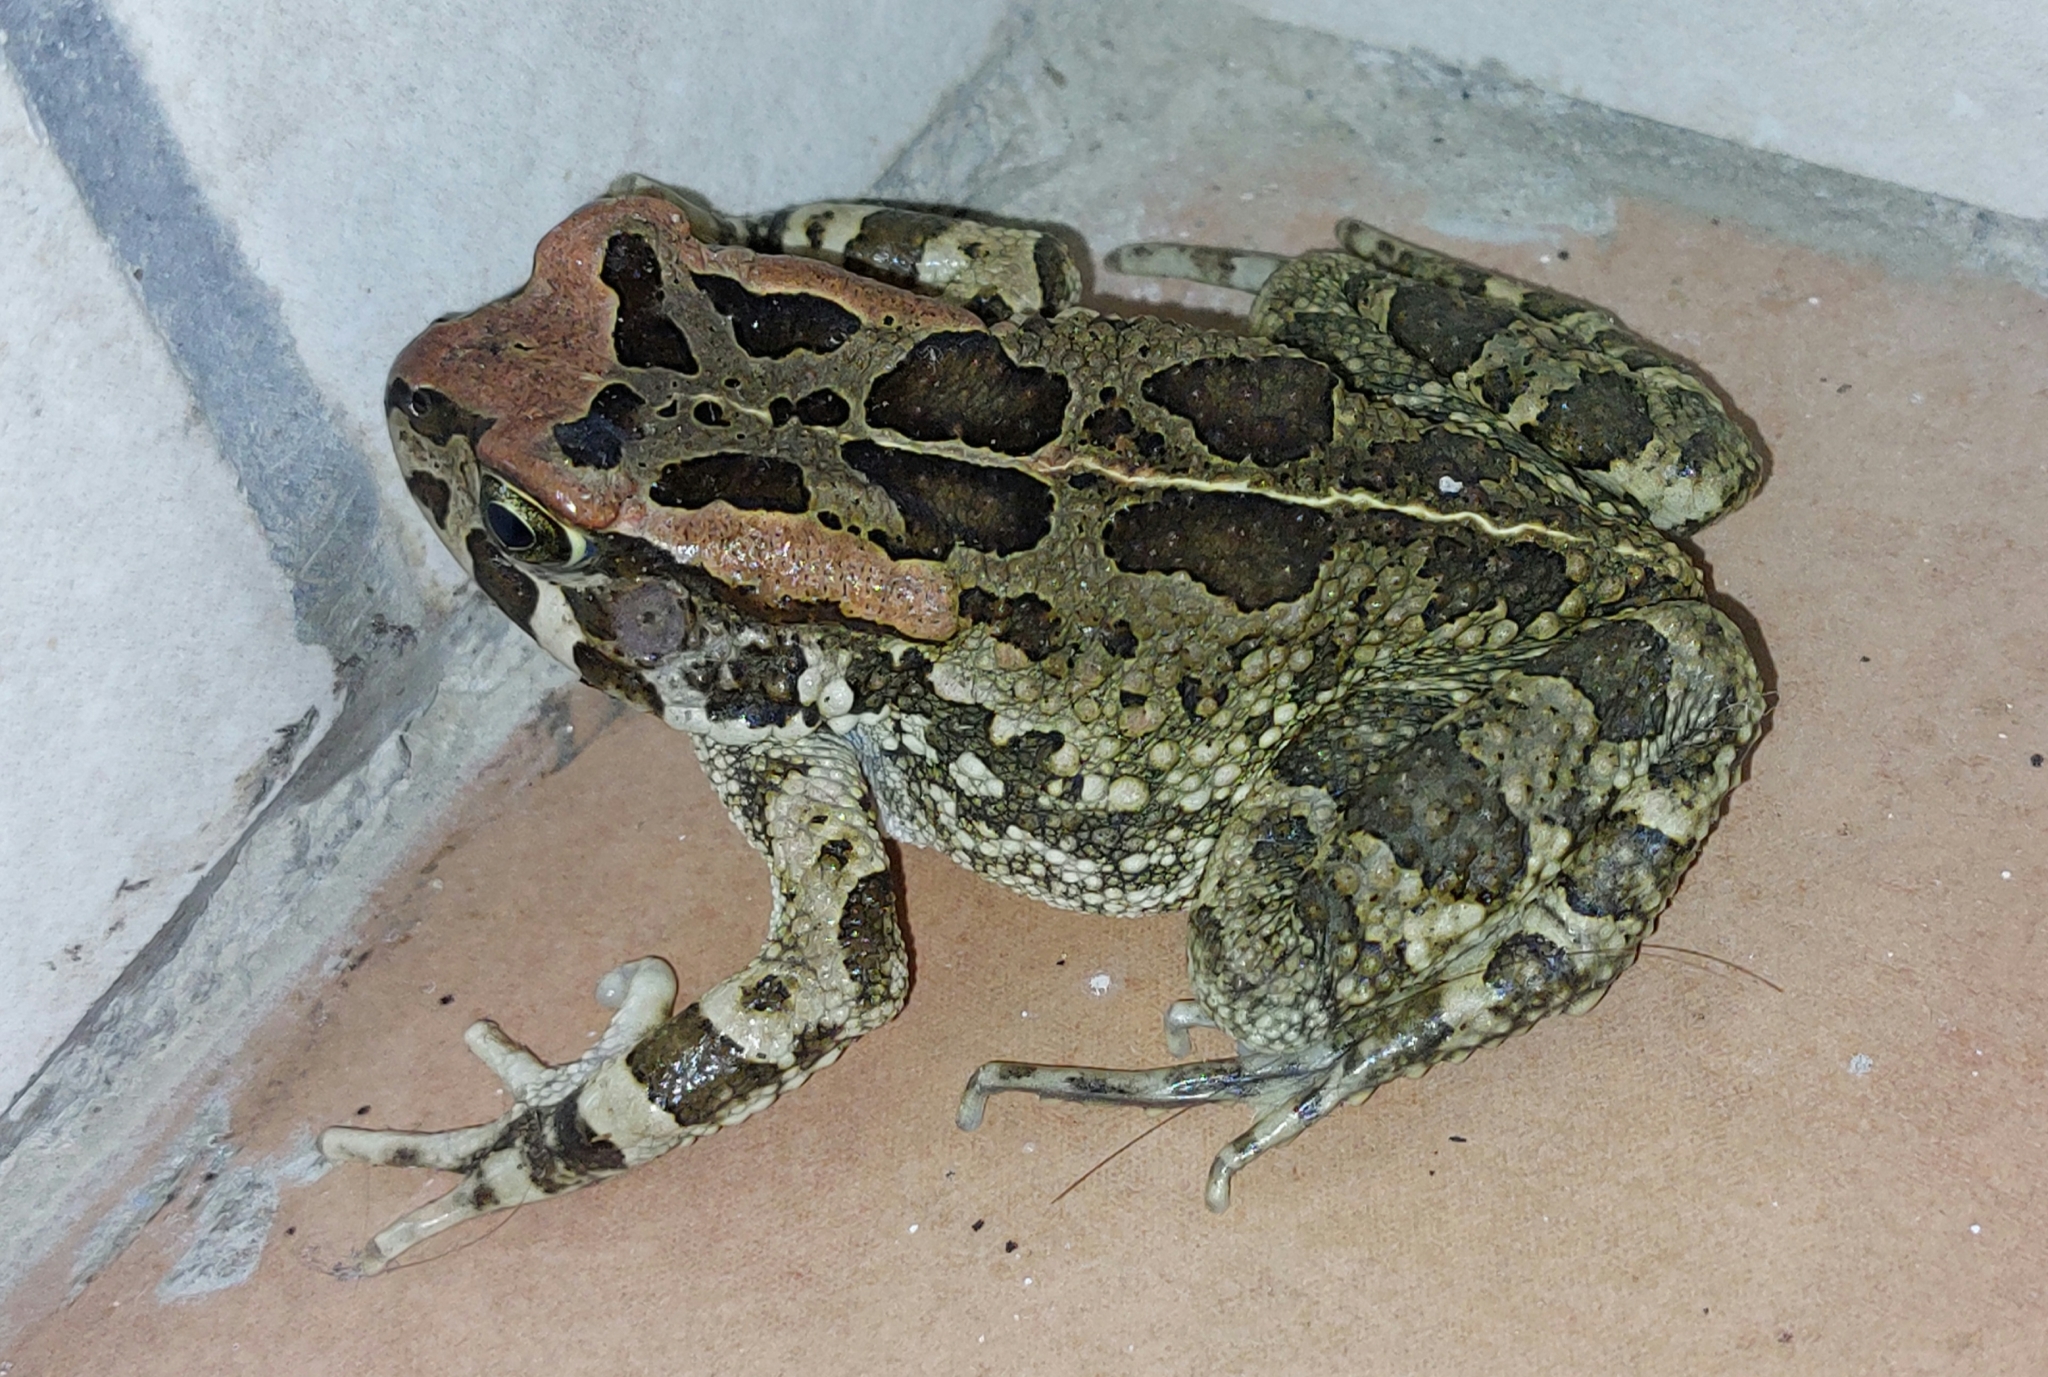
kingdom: Animalia
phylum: Chordata
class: Amphibia
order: Anura
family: Bufonidae
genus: Sclerophrys
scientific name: Sclerophrys capensis
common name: Ranger’s toad
